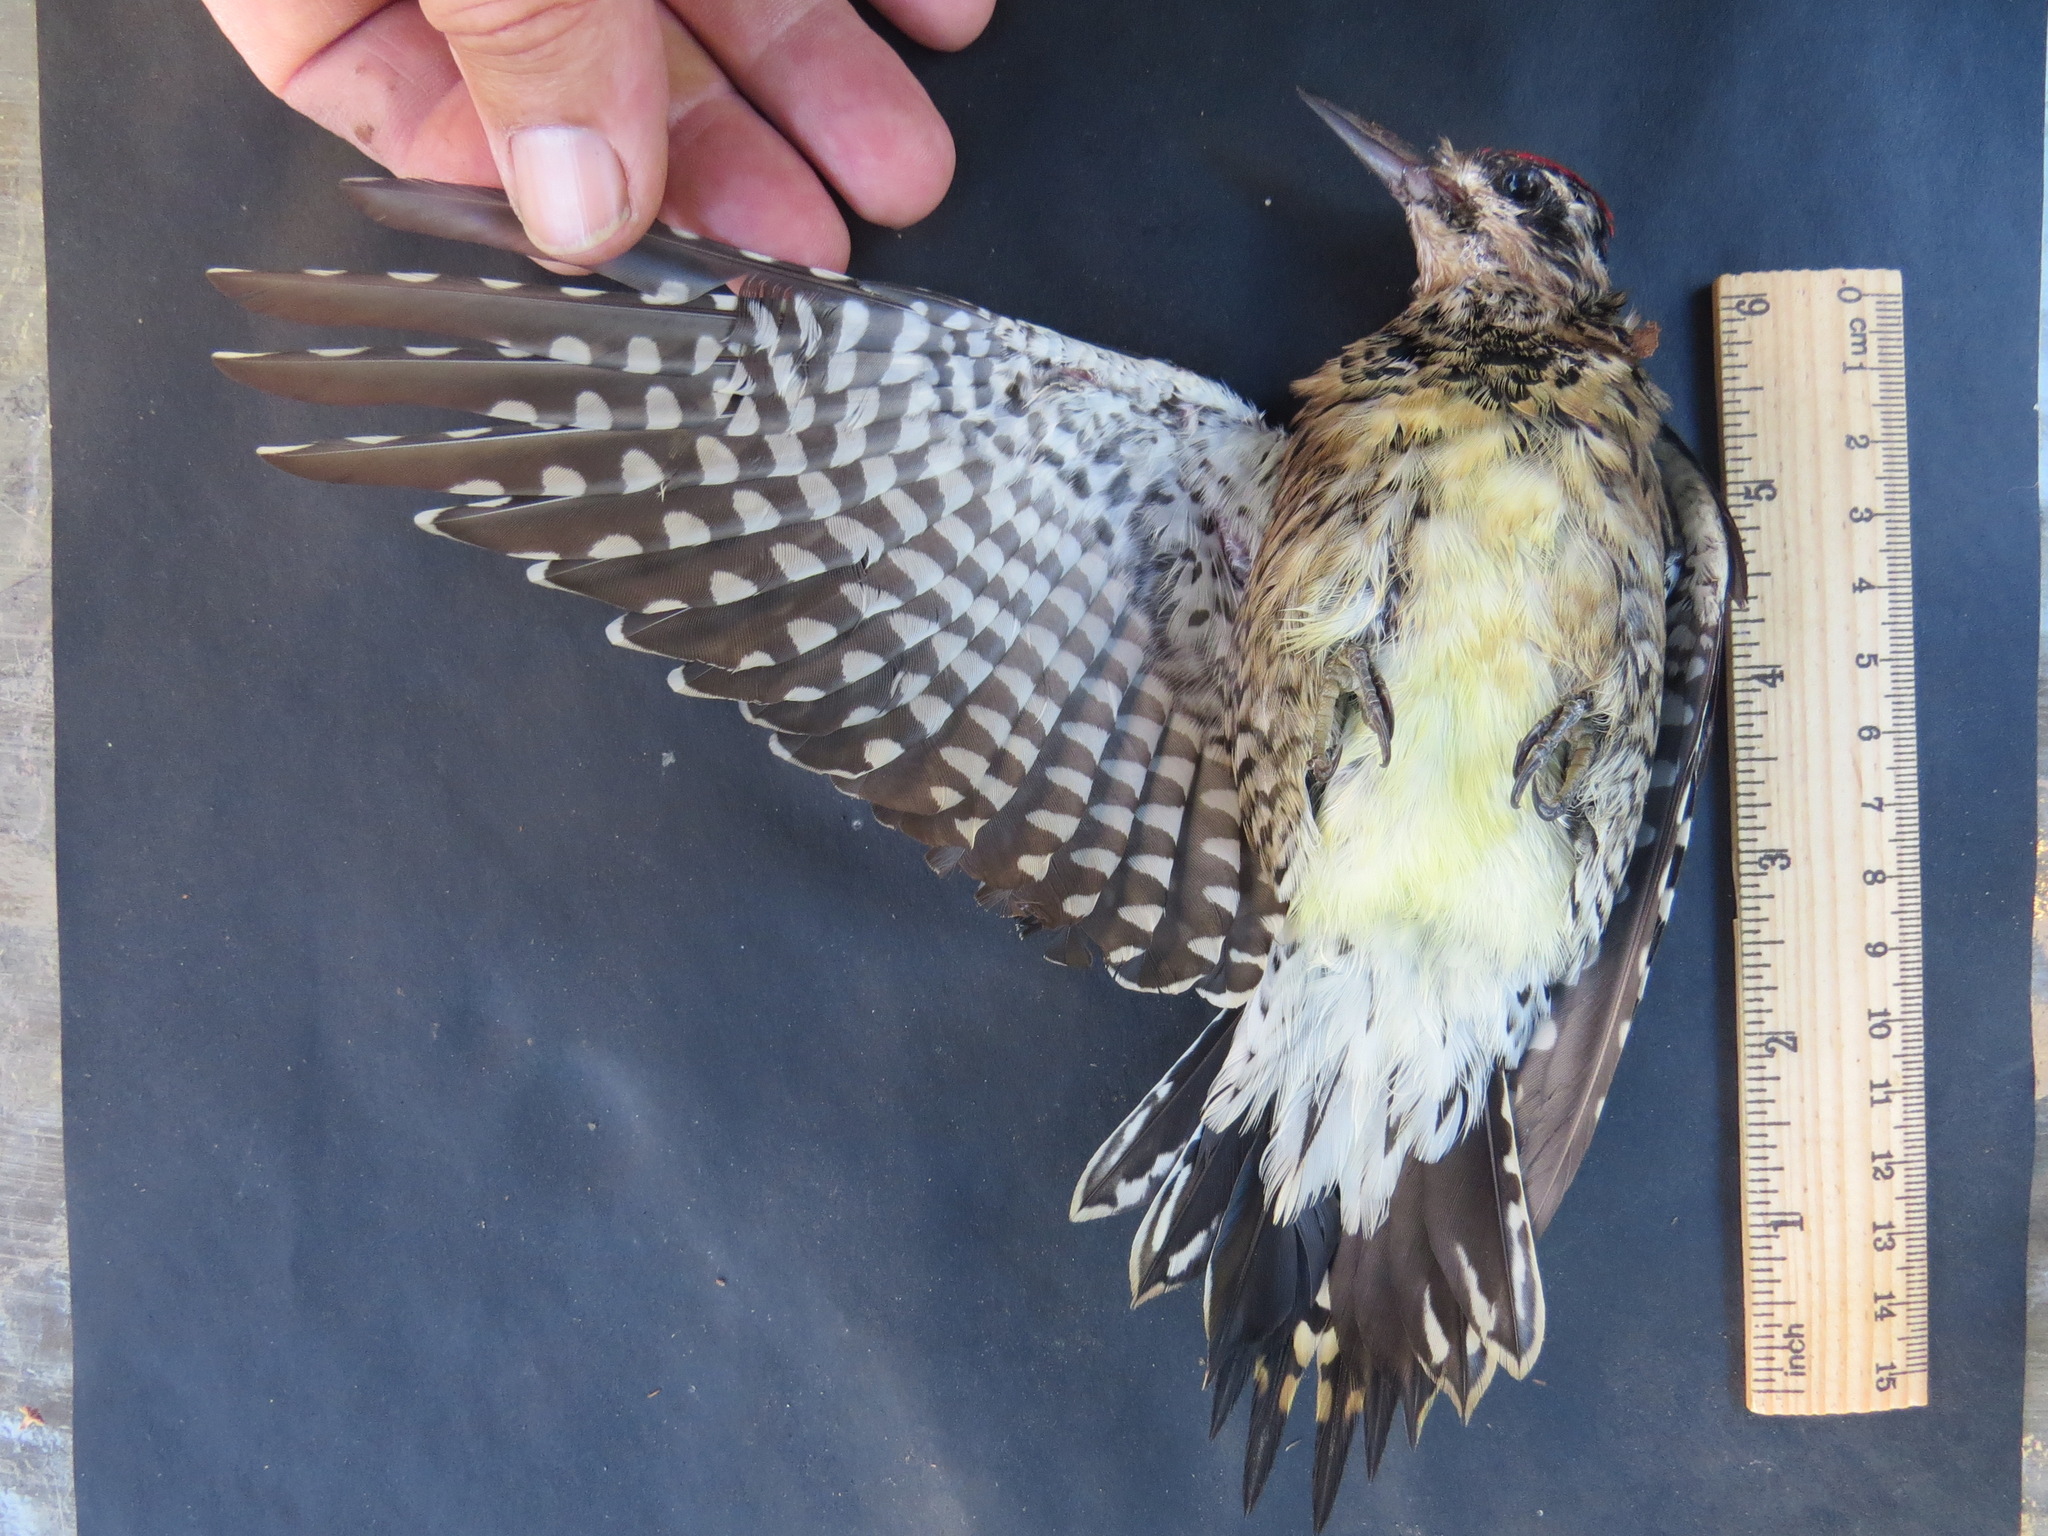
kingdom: Animalia
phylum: Chordata
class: Aves
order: Piciformes
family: Picidae
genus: Sphyrapicus
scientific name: Sphyrapicus varius
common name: Yellow-bellied sapsucker
